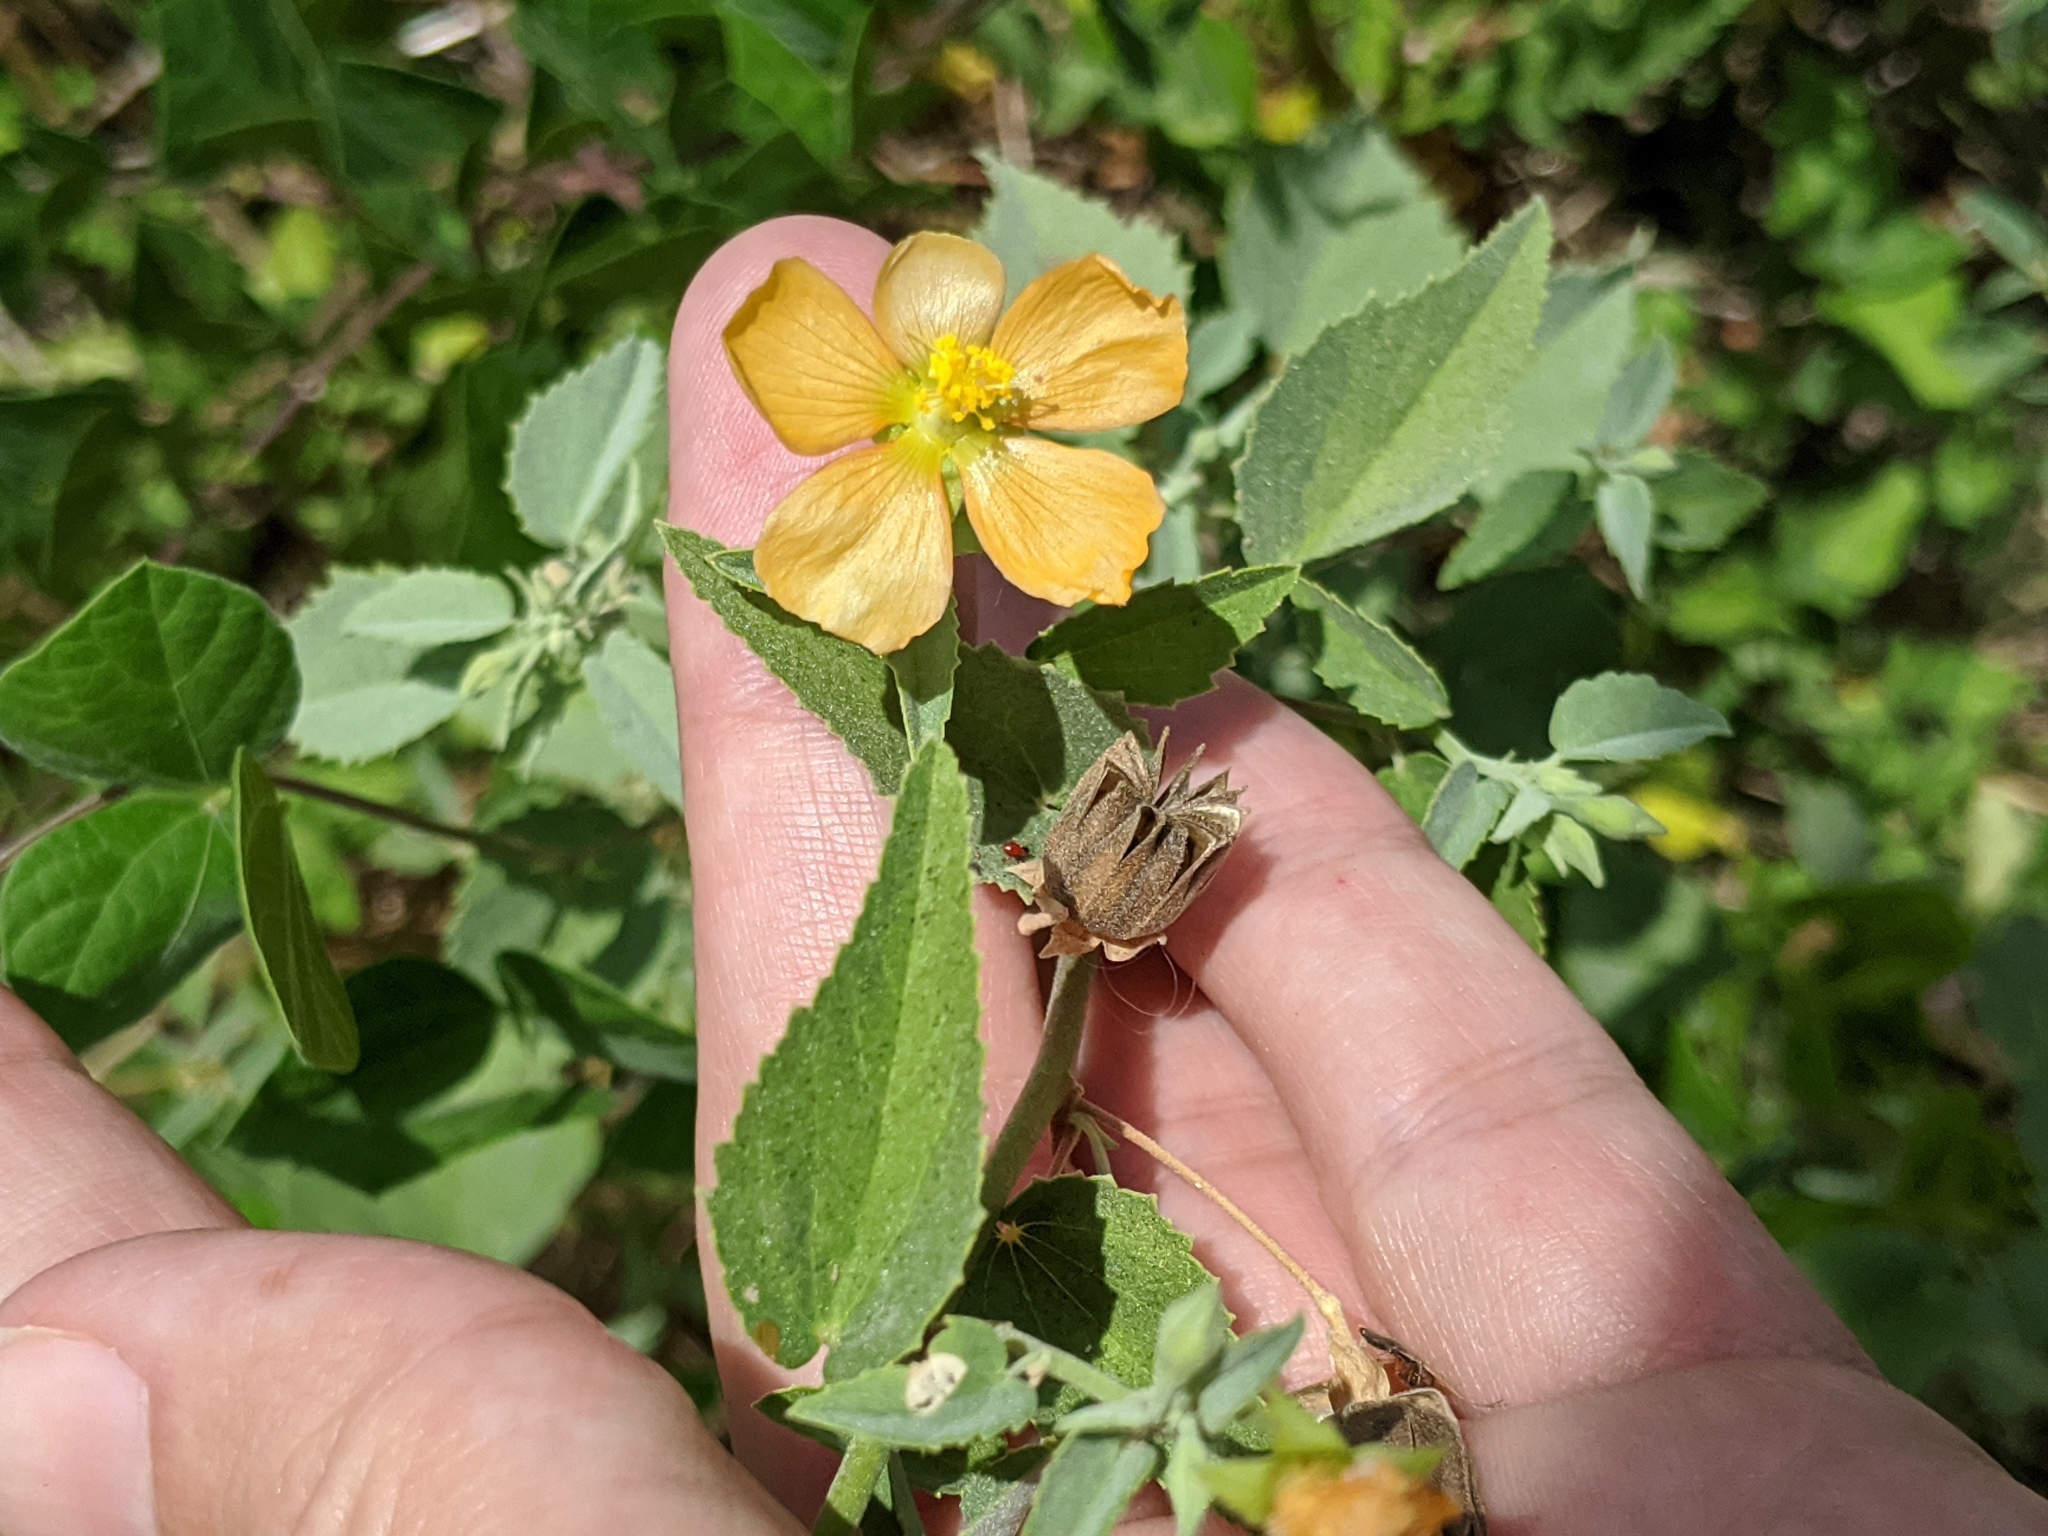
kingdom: Plantae
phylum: Tracheophyta
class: Magnoliopsida
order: Malvales
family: Malvaceae
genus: Abutilon
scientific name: Abutilon fruticosum
